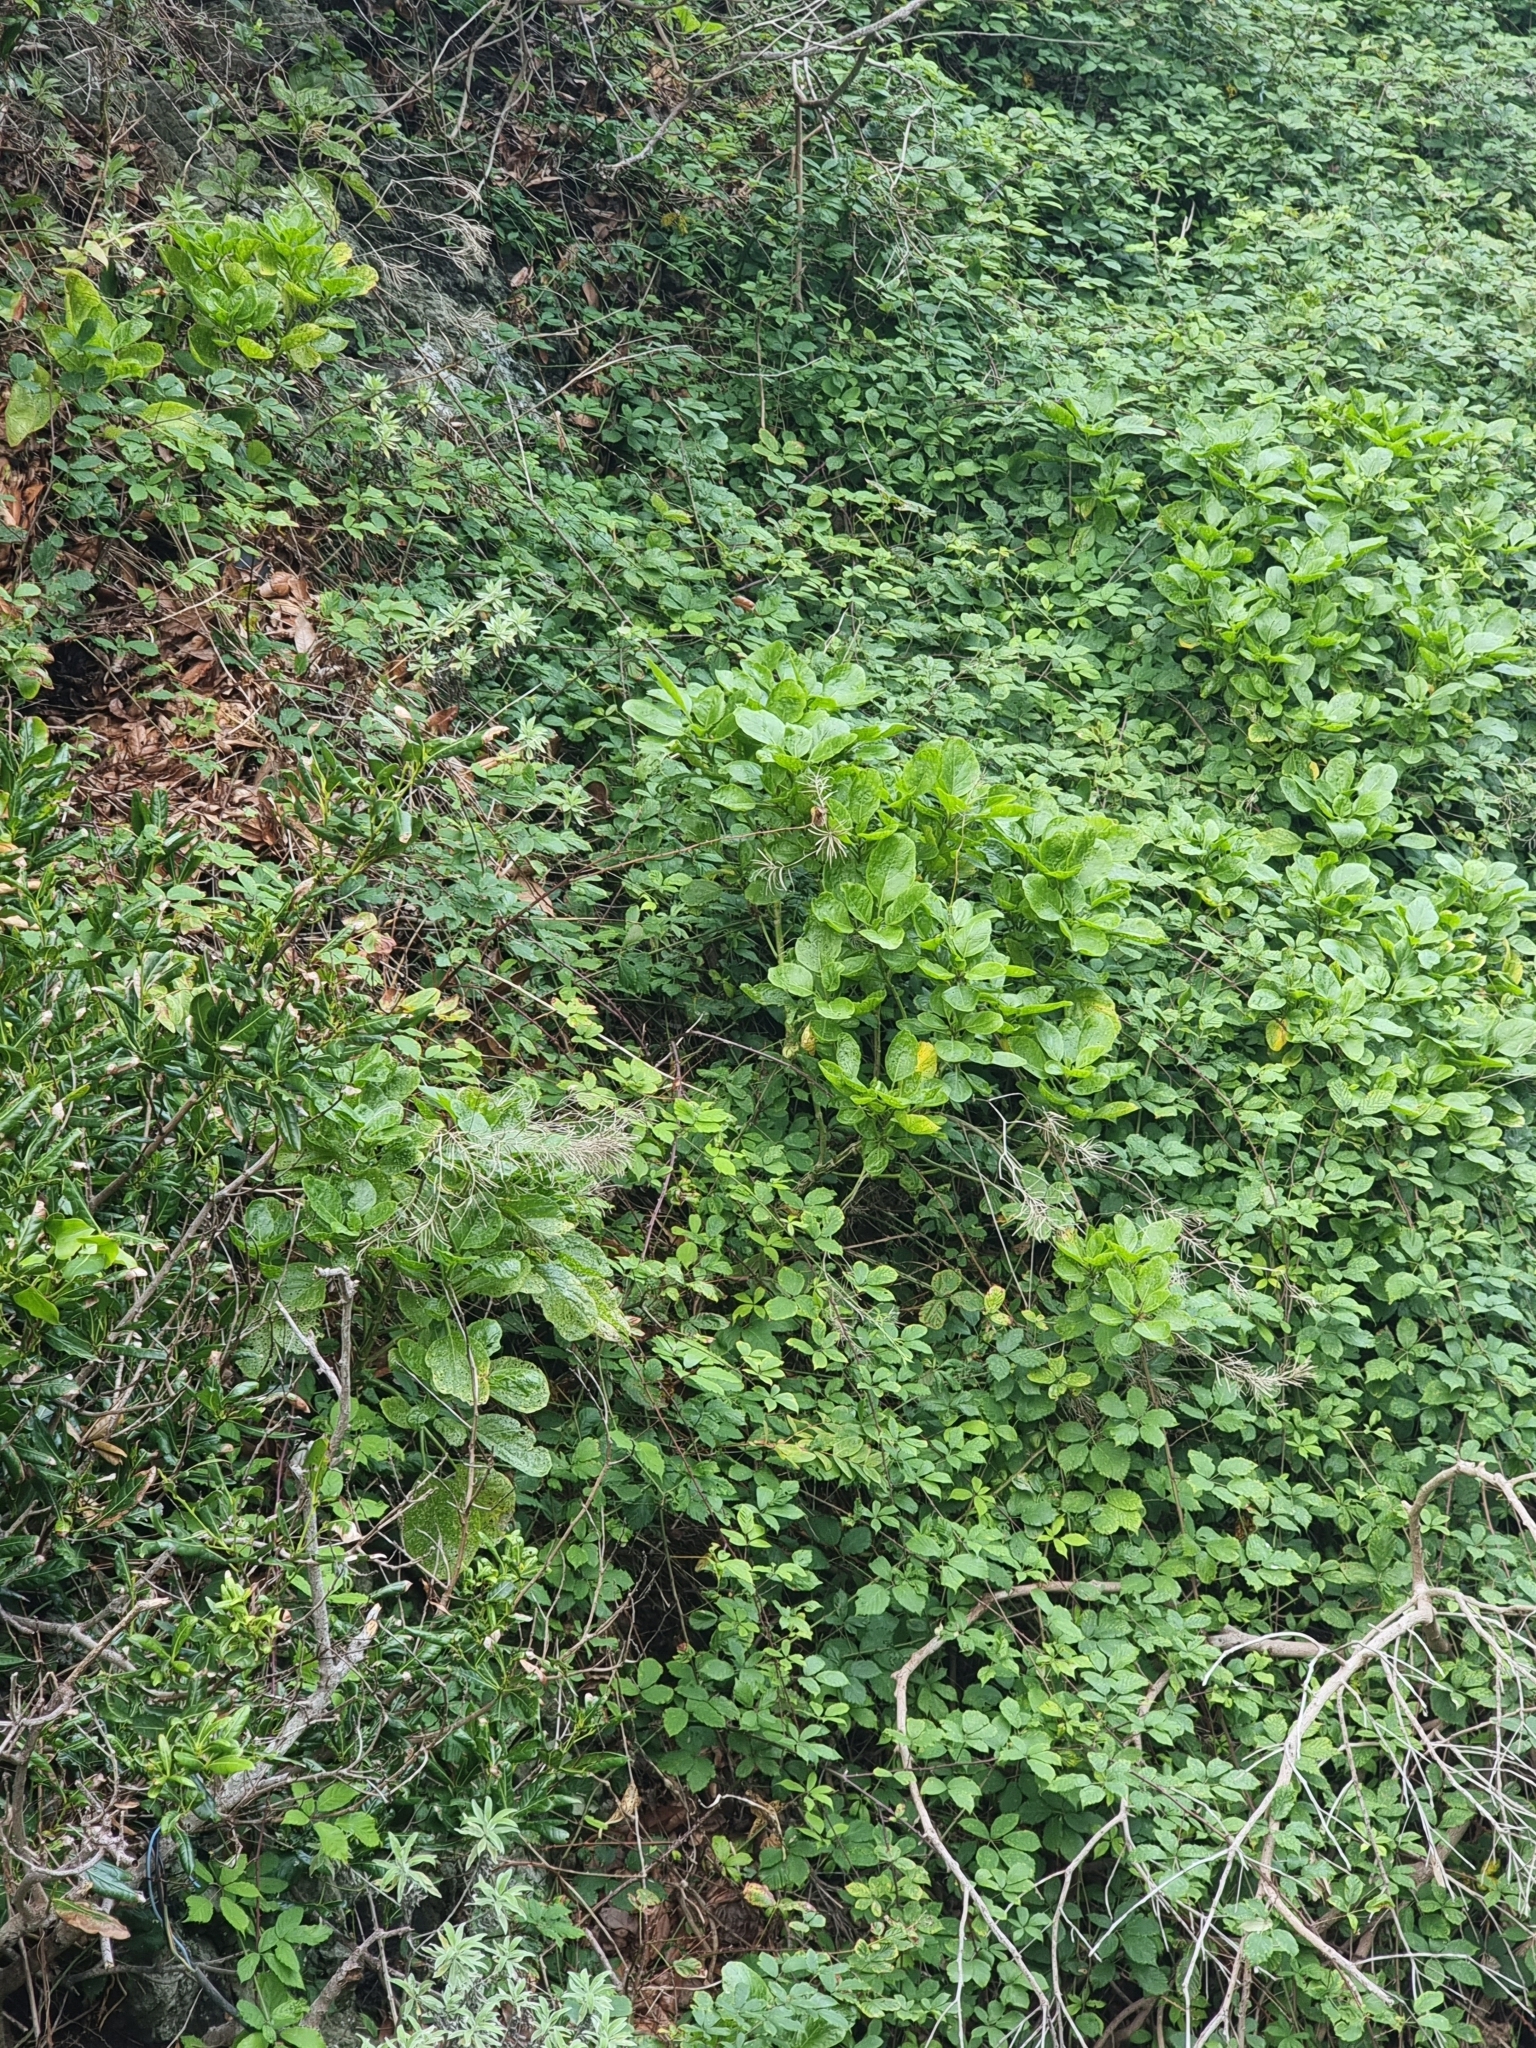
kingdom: Plantae
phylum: Tracheophyta
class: Magnoliopsida
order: Brassicales
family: Brassicaceae
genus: Sinapidendron
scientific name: Sinapidendron rupestre
